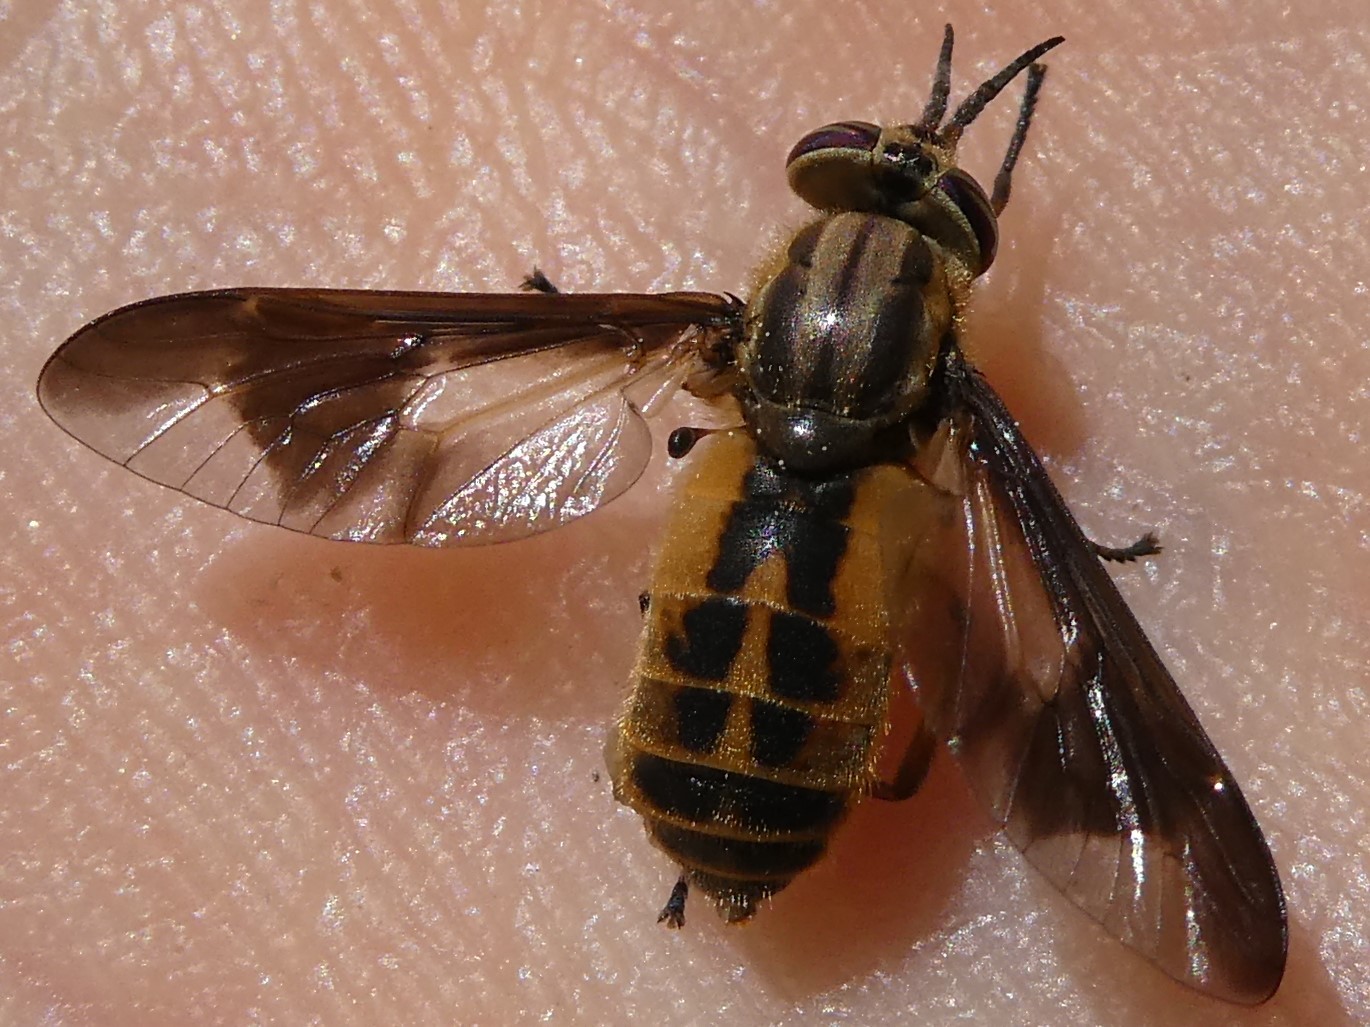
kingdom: Animalia
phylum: Arthropoda
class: Insecta
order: Diptera
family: Tabanidae
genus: Chrysops
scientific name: Chrysops indus
